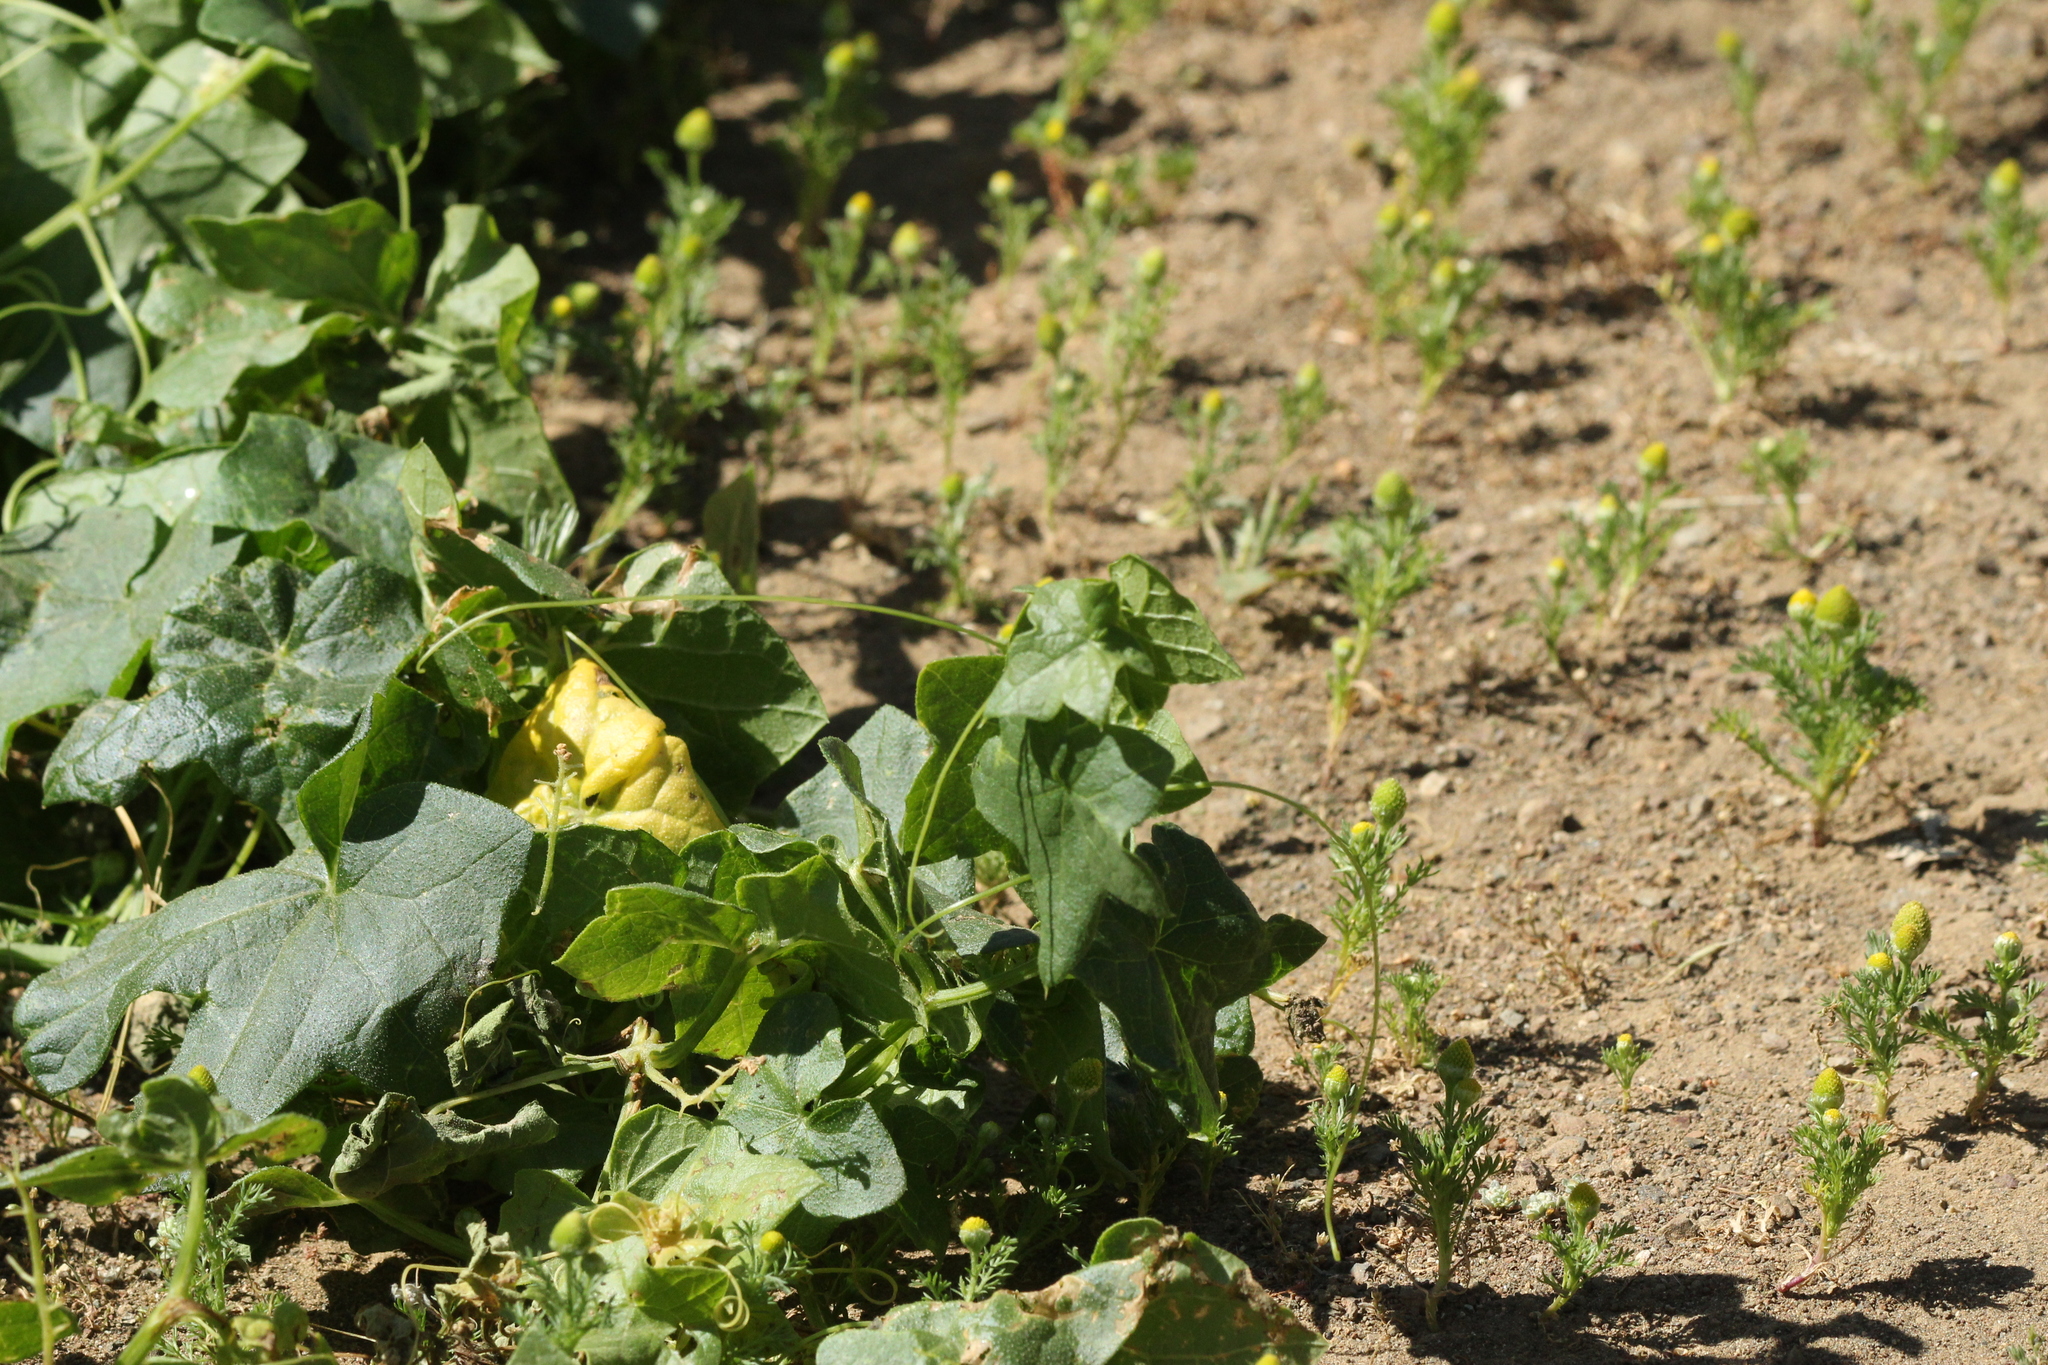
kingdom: Plantae
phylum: Tracheophyta
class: Magnoliopsida
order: Cucurbitales
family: Cucurbitaceae
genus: Marah
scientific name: Marah fabacea
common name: California manroot
